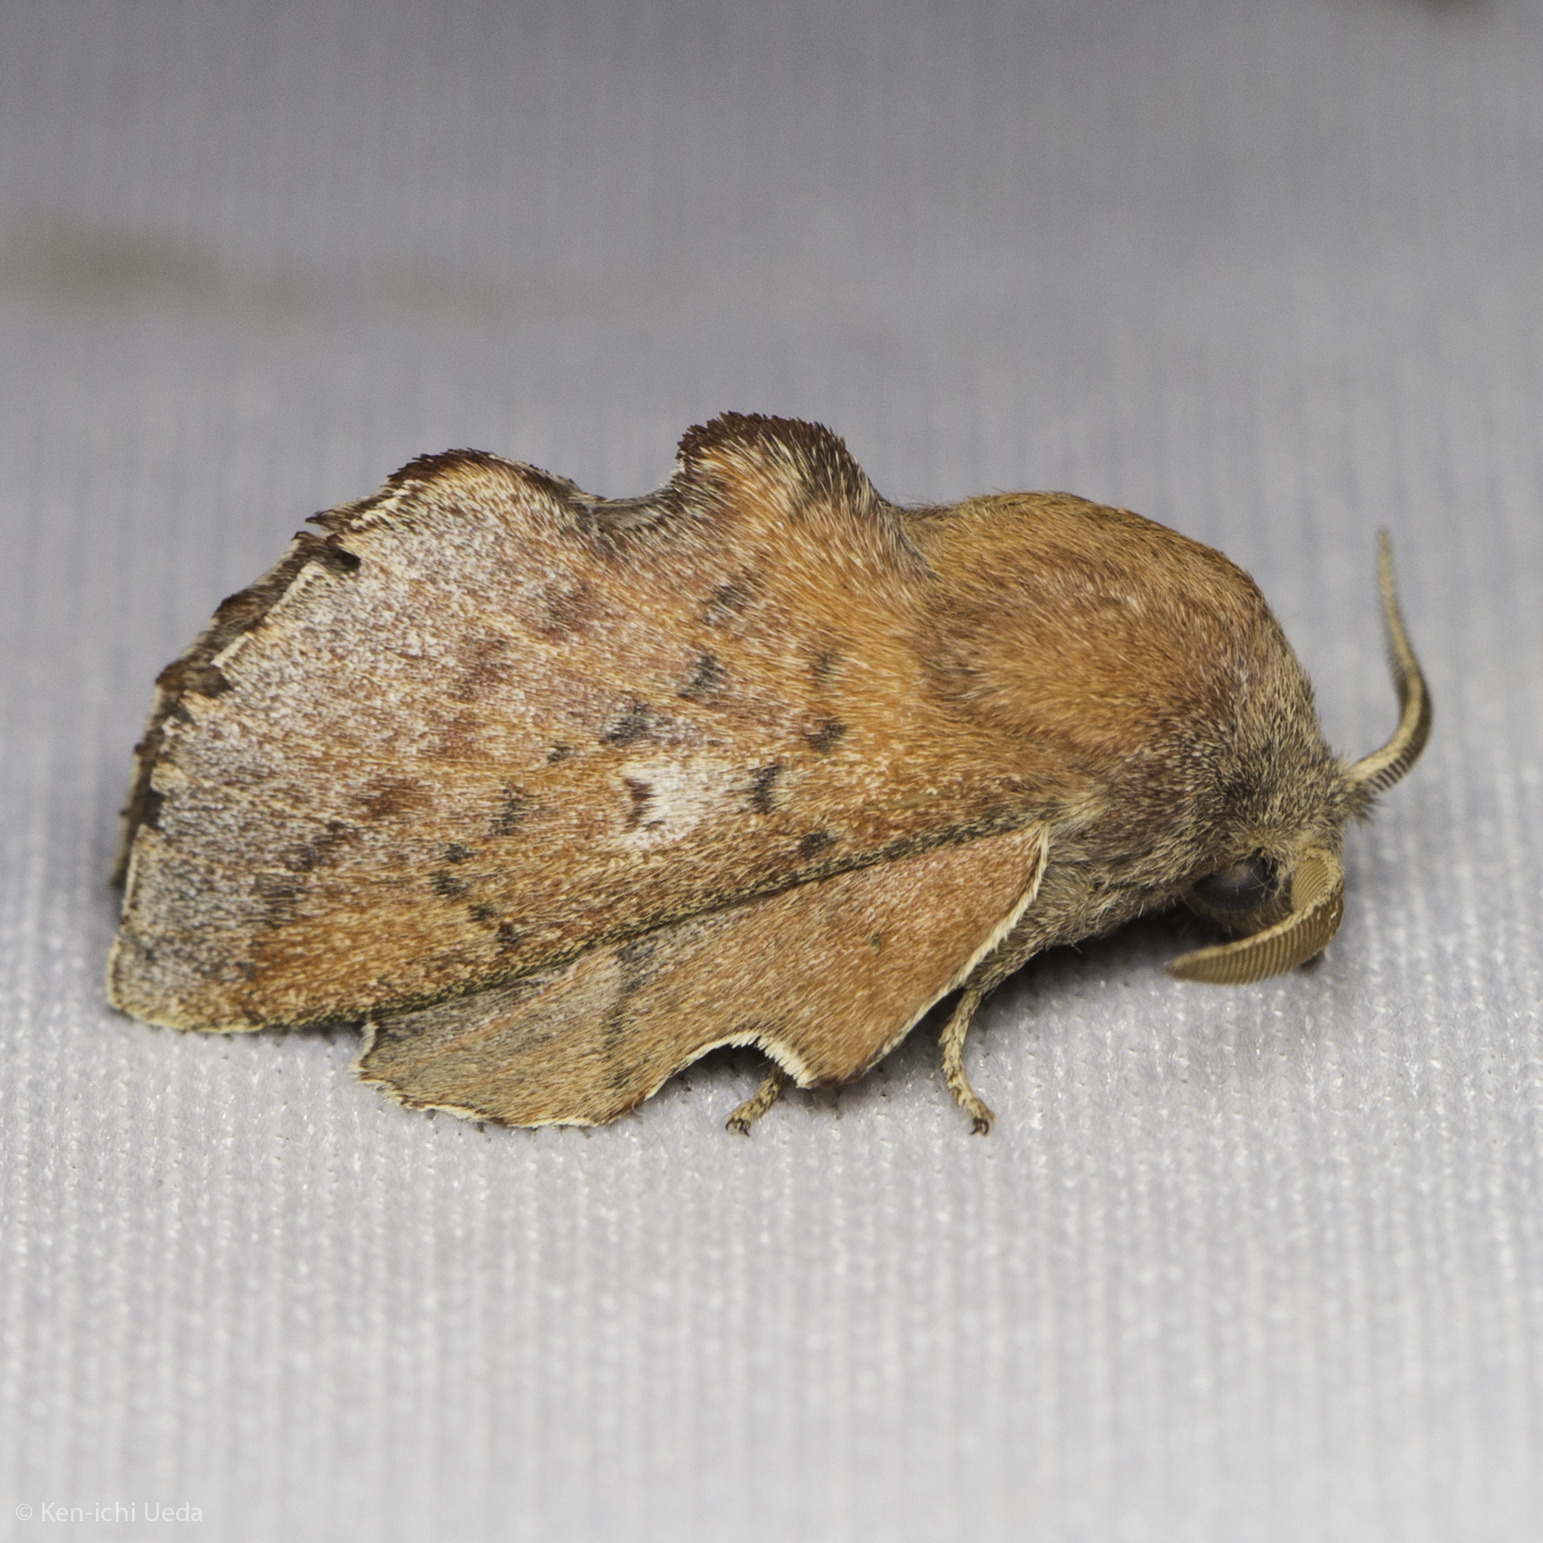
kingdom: Animalia
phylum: Arthropoda
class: Insecta
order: Lepidoptera
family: Lasiocampidae
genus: Phyllodesma
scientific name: Phyllodesma americana
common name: American lappet moth
